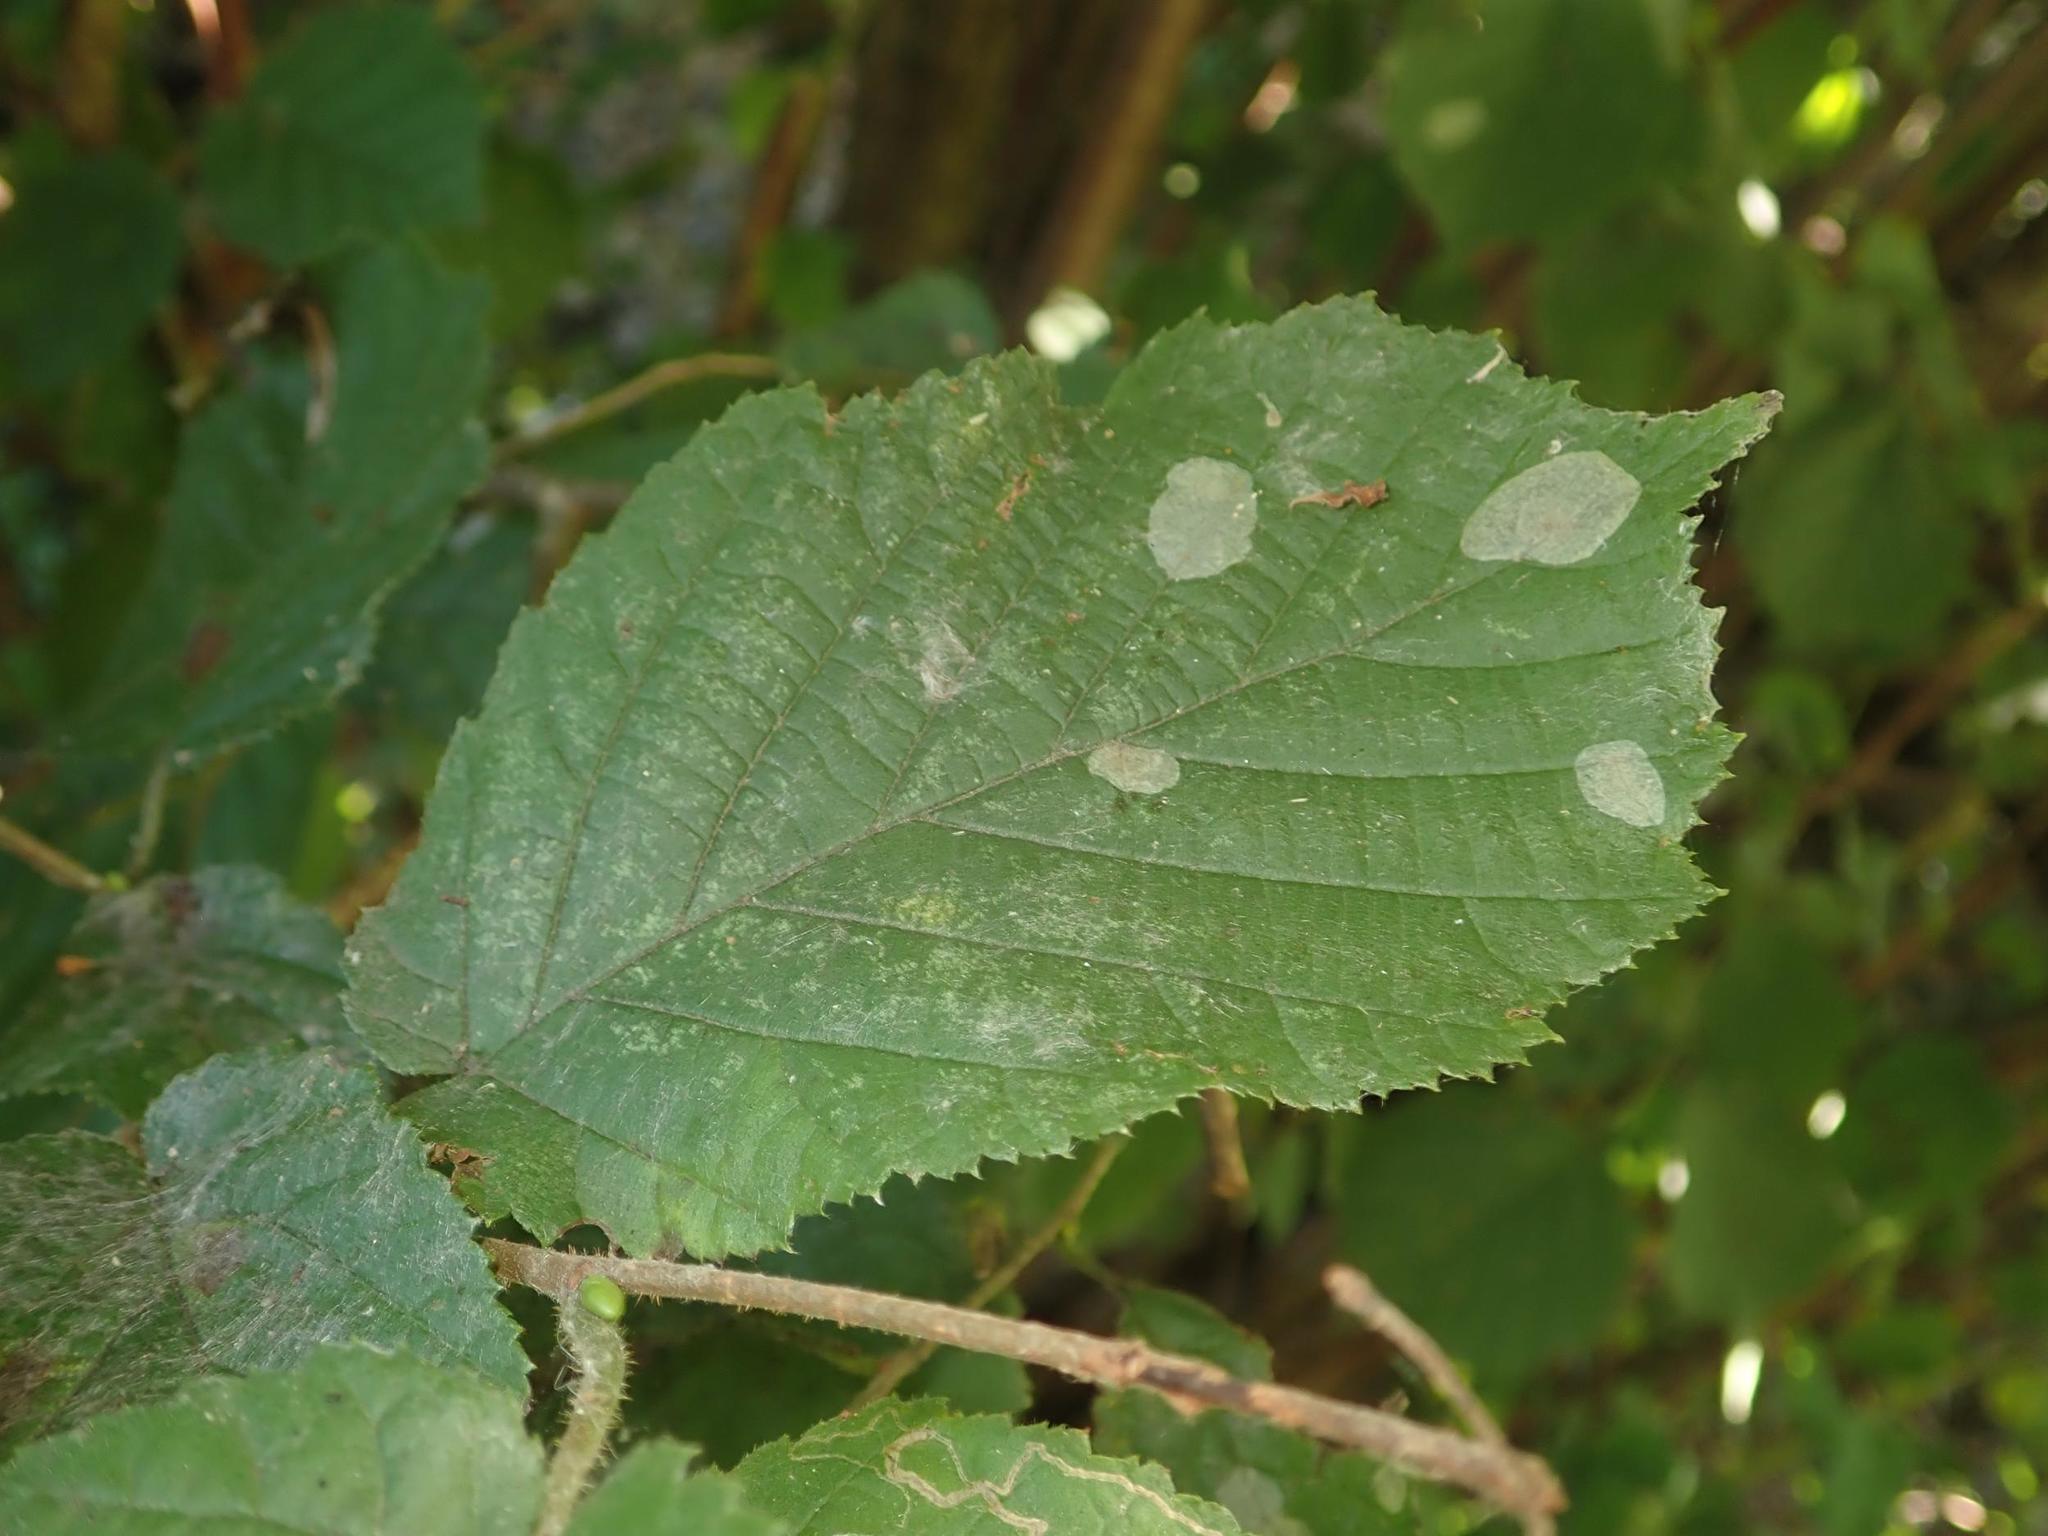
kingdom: Plantae
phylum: Tracheophyta
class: Magnoliopsida
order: Fagales
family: Betulaceae
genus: Corylus
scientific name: Corylus avellana
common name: European hazel
